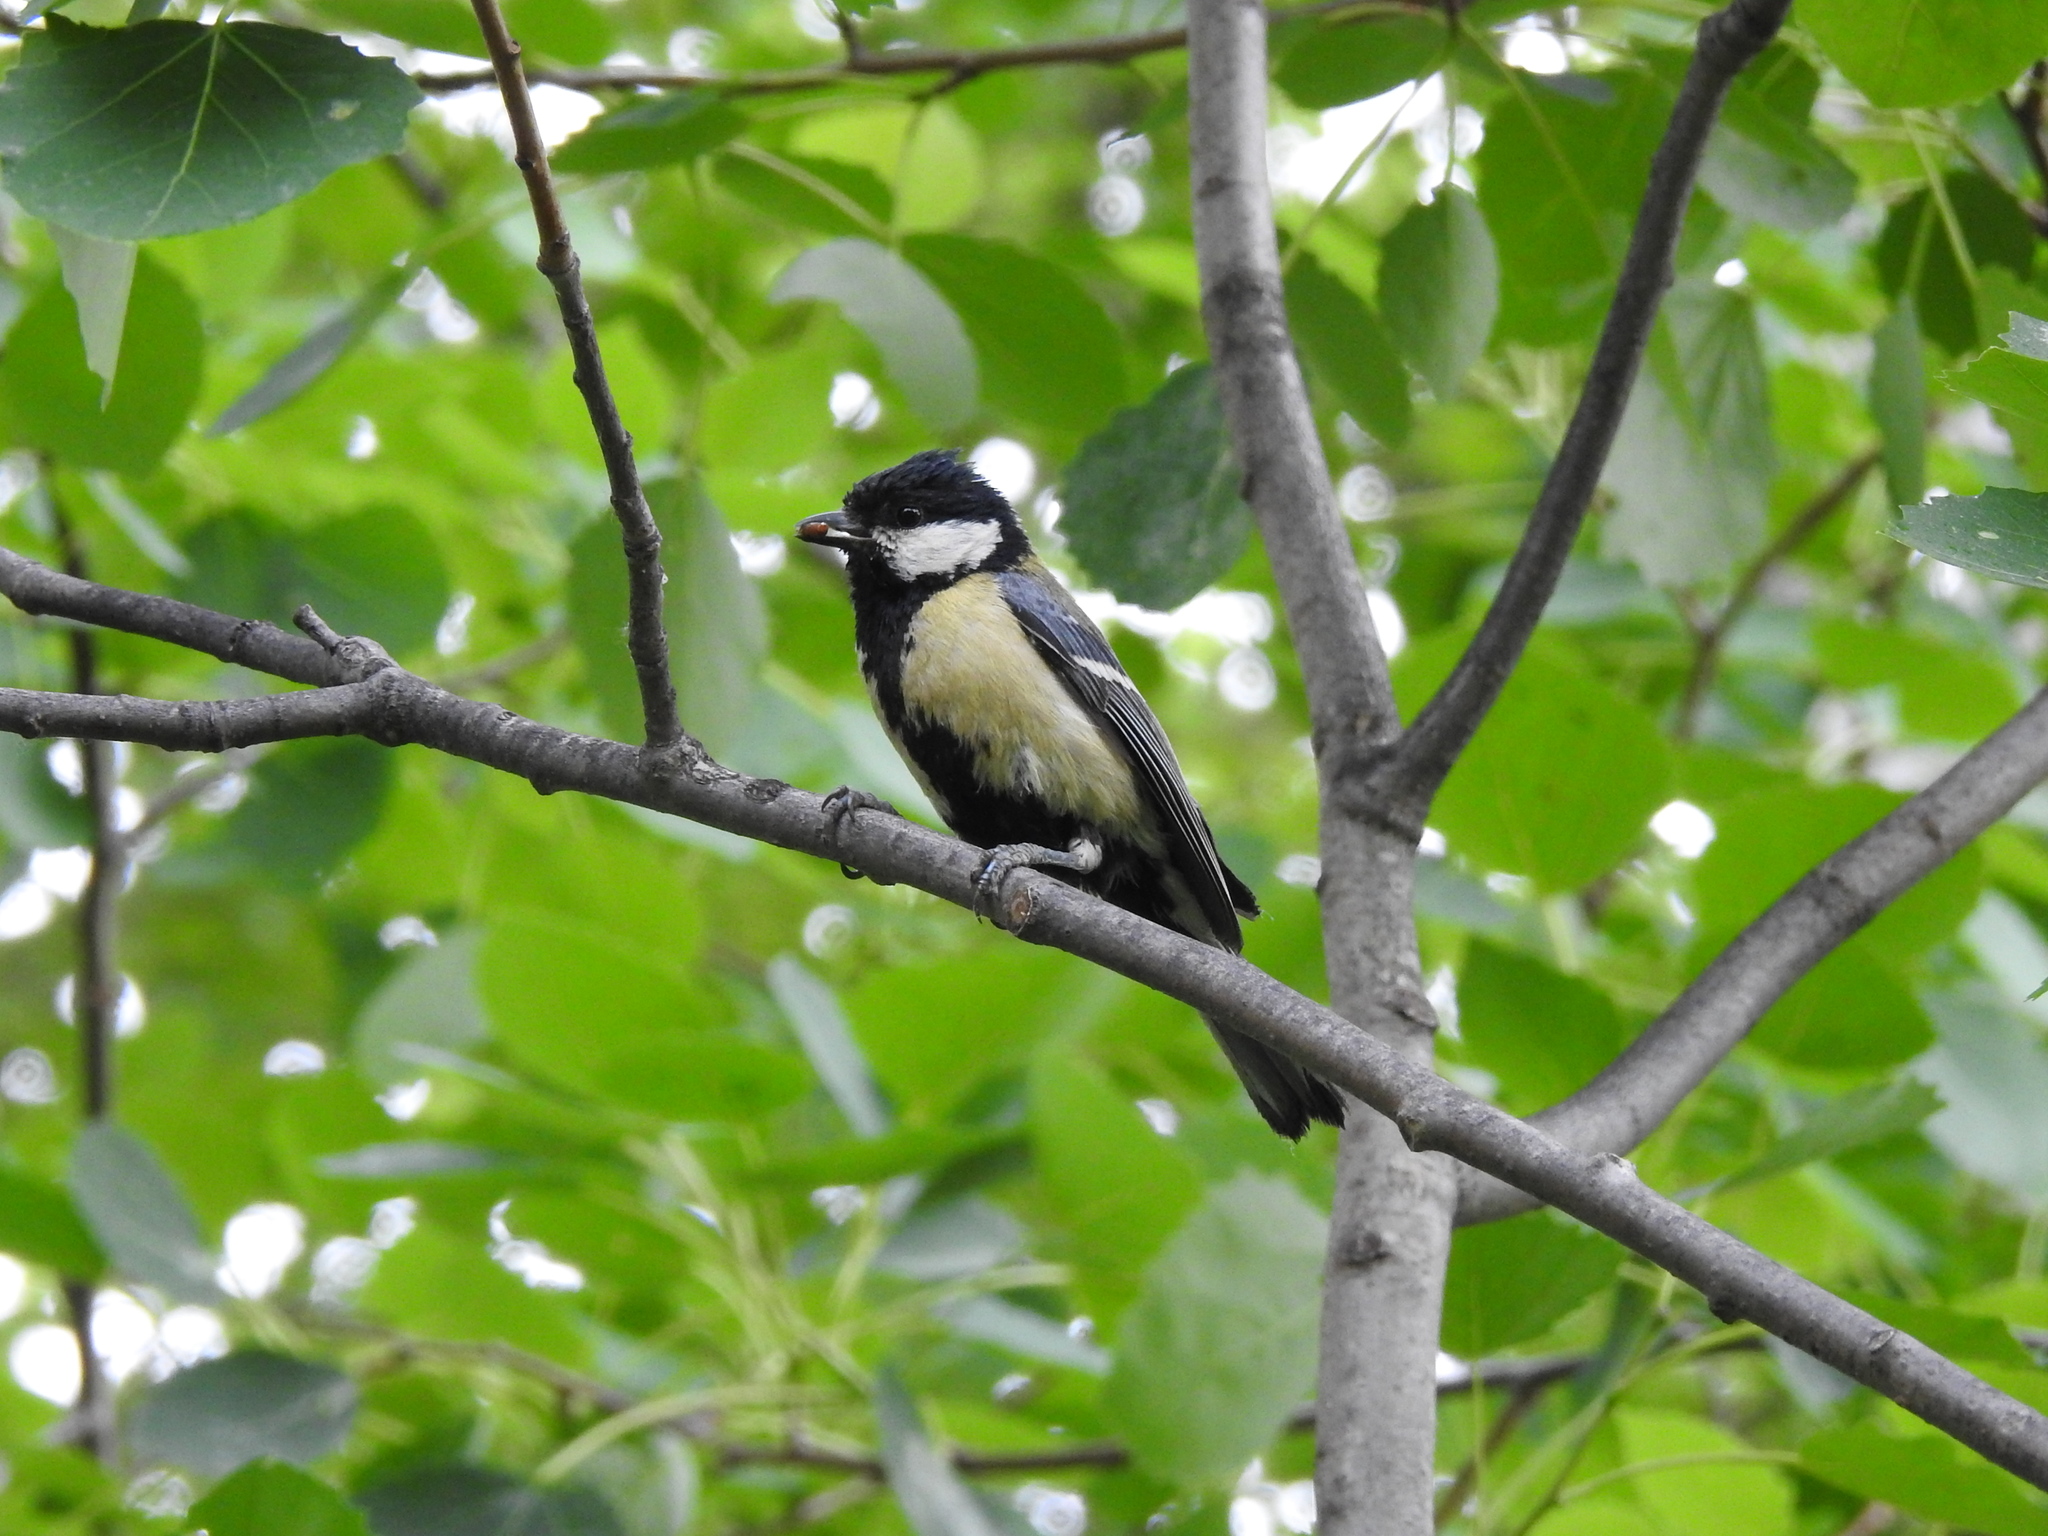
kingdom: Animalia
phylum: Chordata
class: Aves
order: Passeriformes
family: Paridae
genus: Parus
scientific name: Parus major
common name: Great tit
